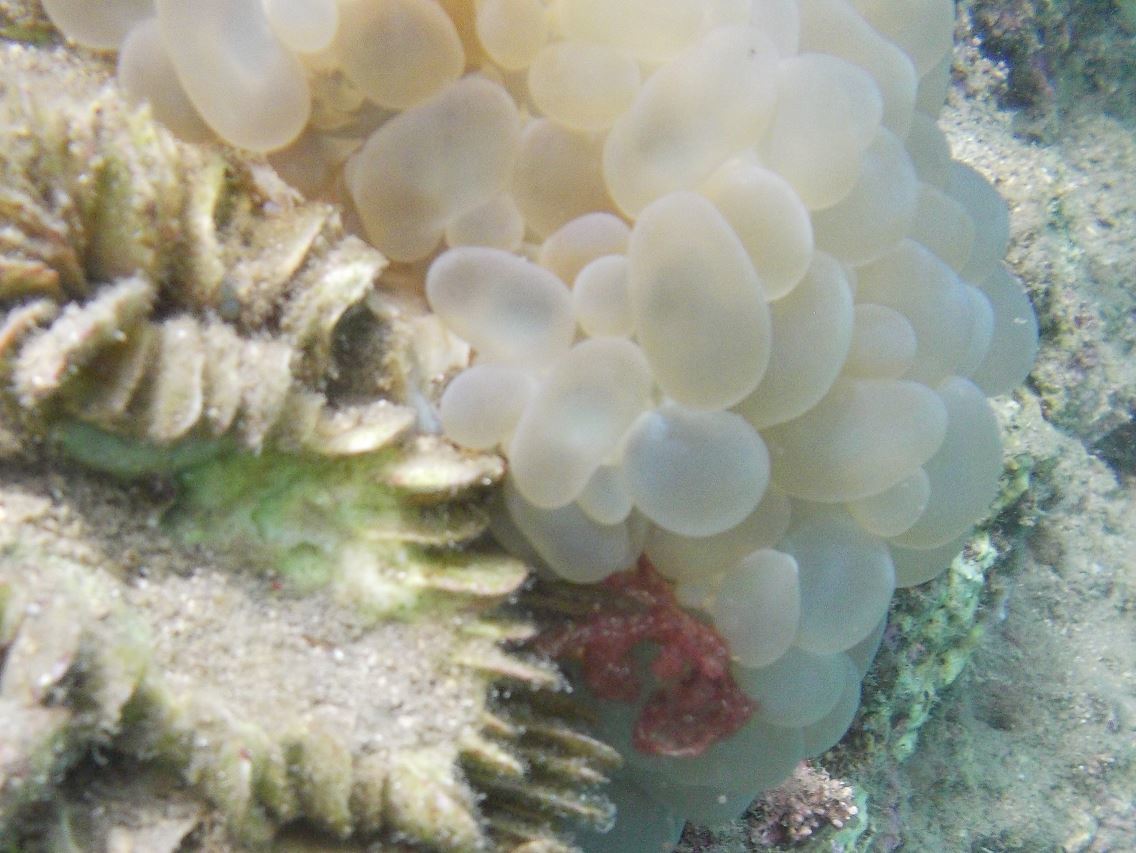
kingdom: Animalia
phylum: Cnidaria
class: Anthozoa
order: Scleractinia
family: Plerogyridae
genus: Plerogyra
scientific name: Plerogyra sinuosa
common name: Bubble coral
